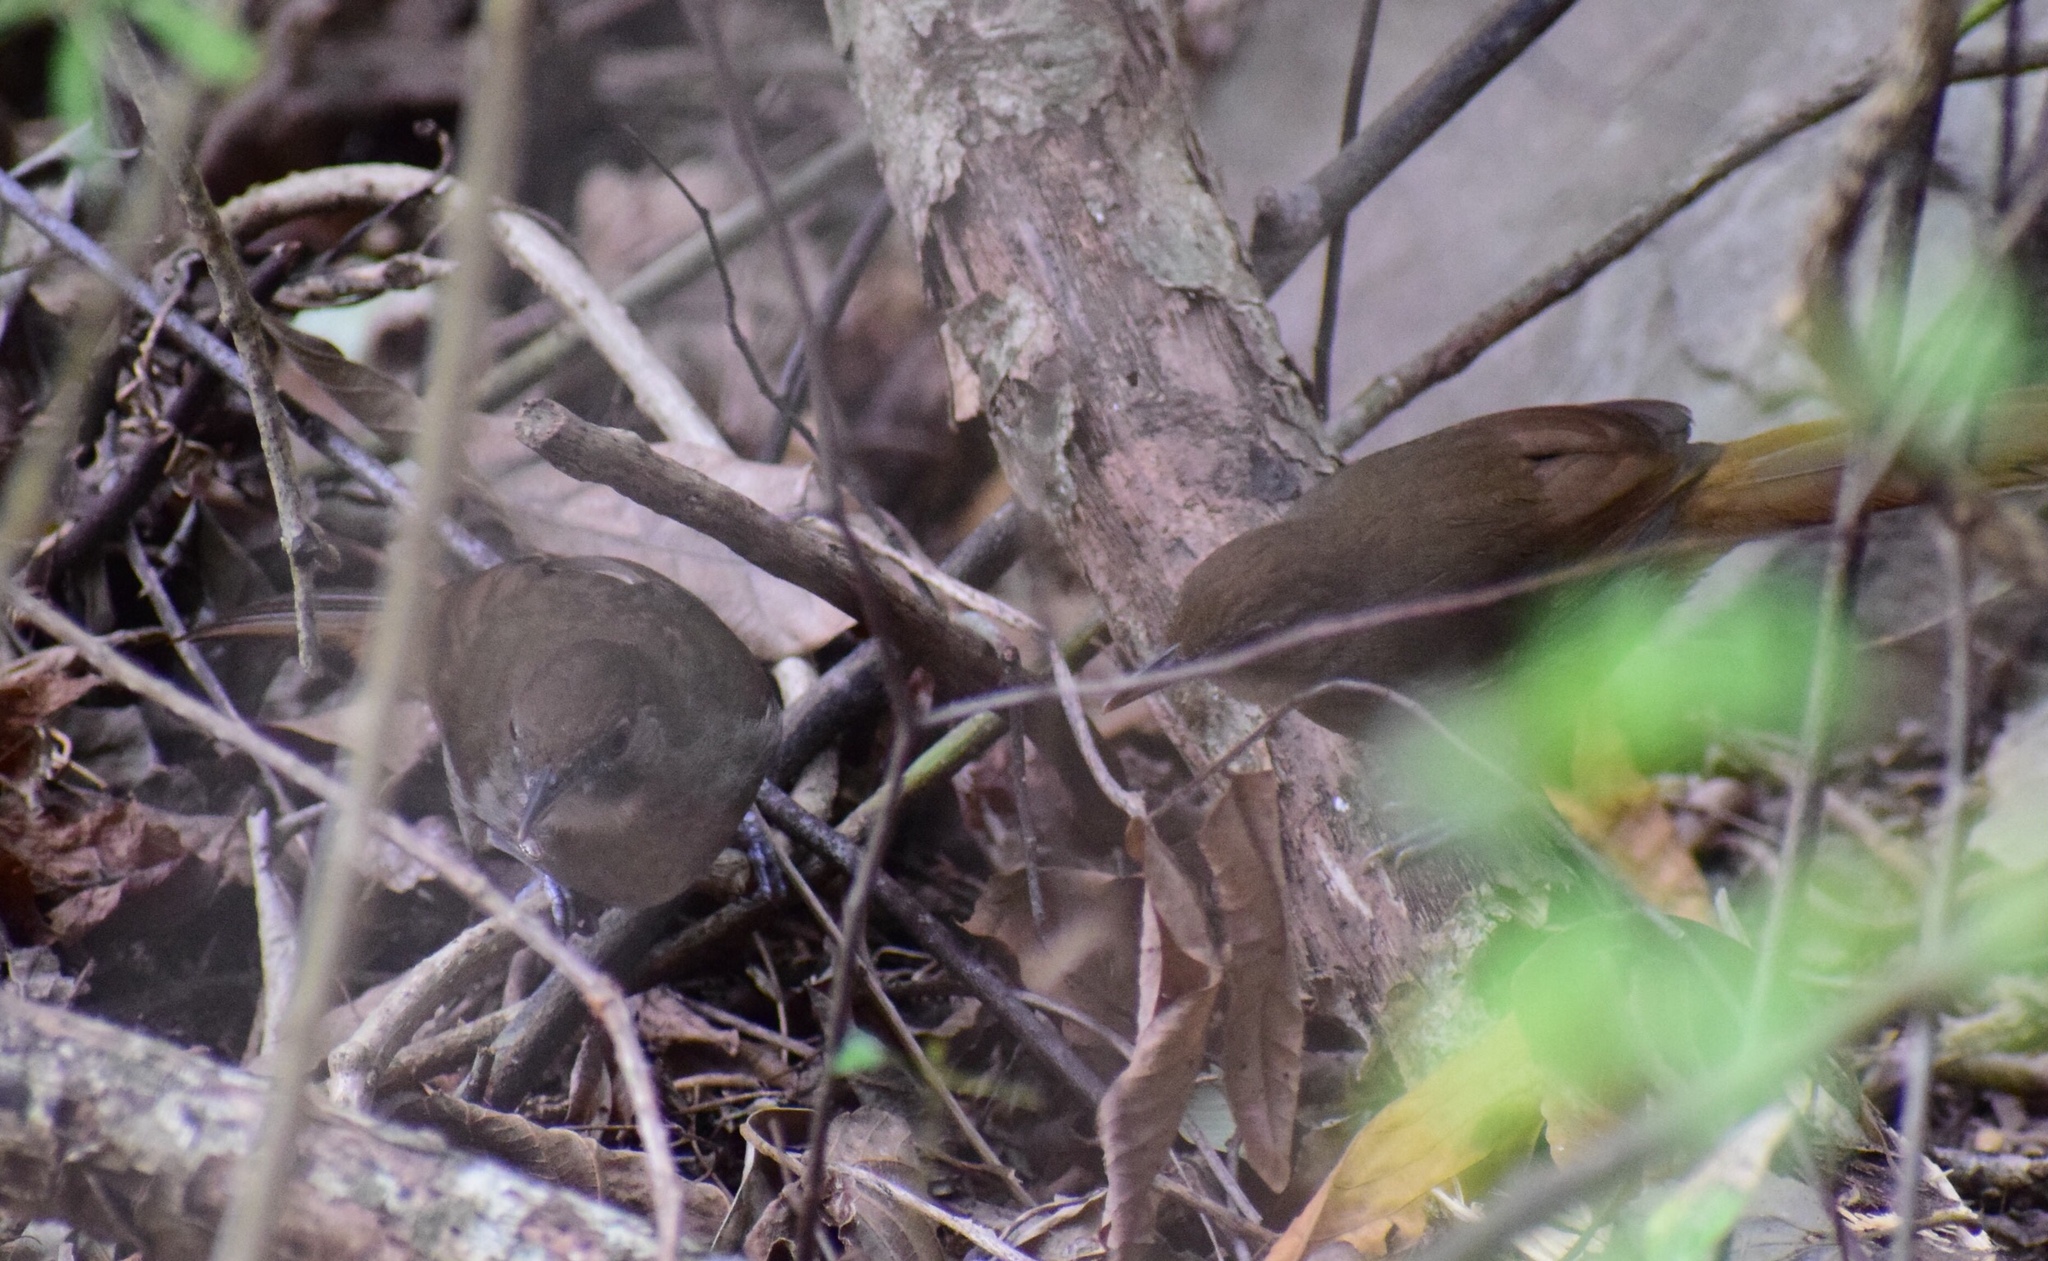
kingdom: Animalia
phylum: Chordata
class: Aves
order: Passeriformes
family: Pycnonotidae
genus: Phyllastrephus
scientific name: Phyllastrephus terrestris
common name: Terrestrial brownbul
